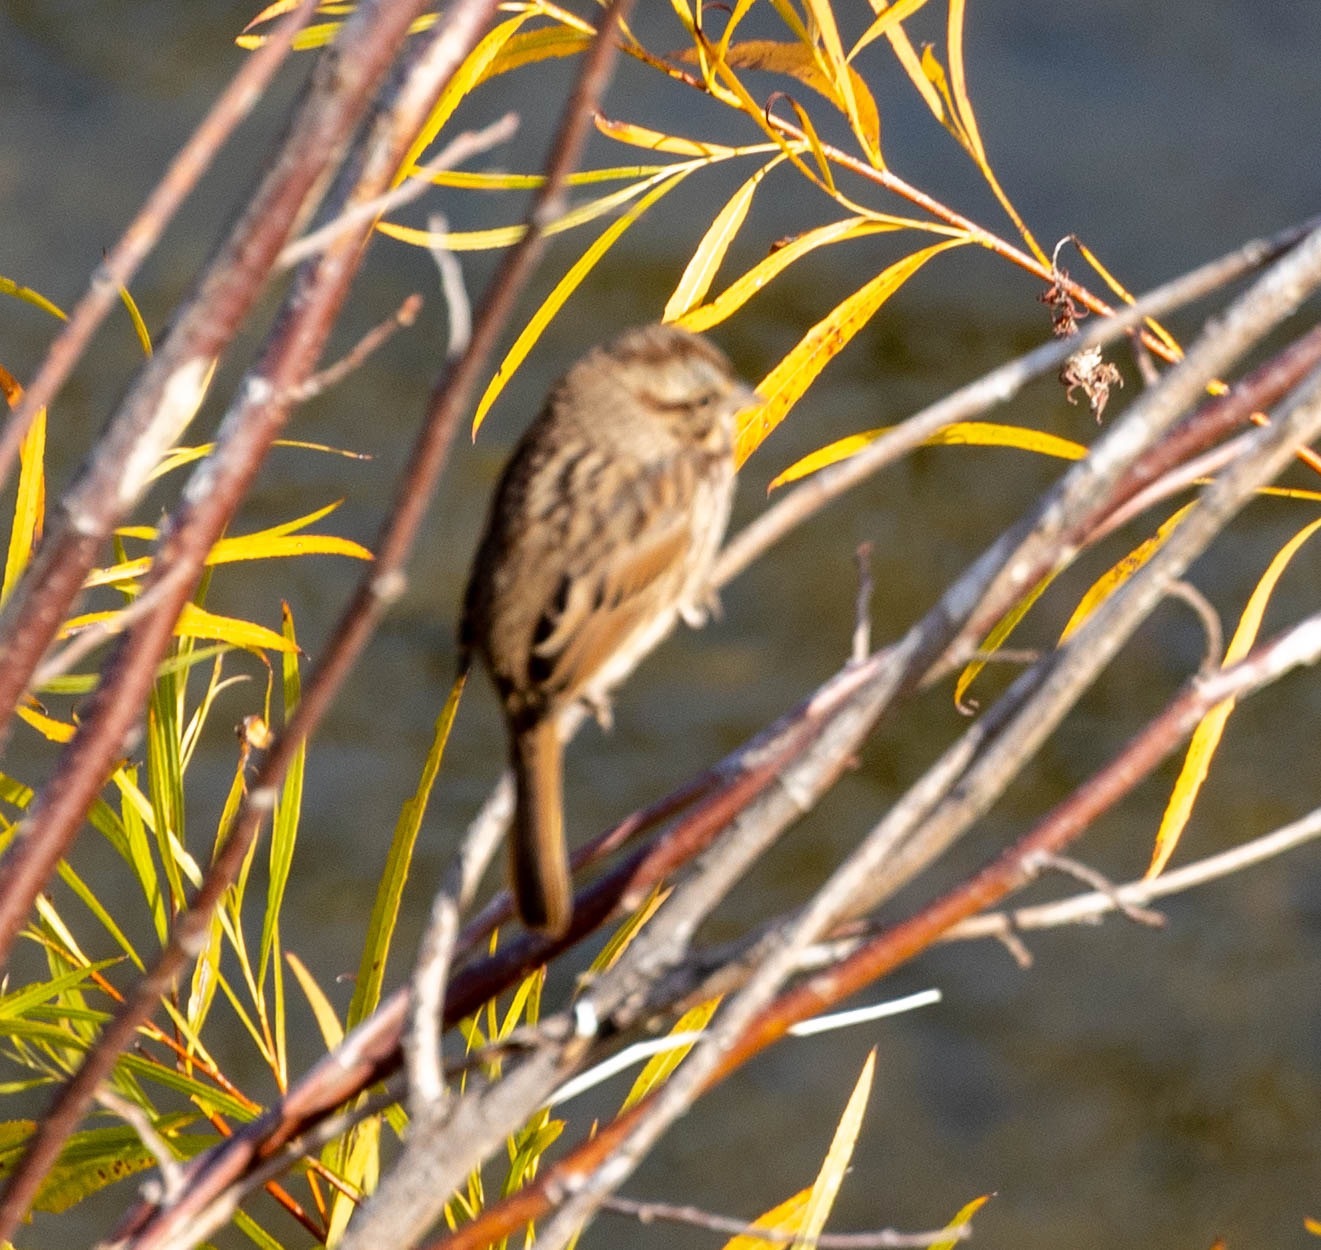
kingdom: Animalia
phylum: Chordata
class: Aves
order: Passeriformes
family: Passerellidae
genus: Melospiza
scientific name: Melospiza melodia
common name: Song sparrow
